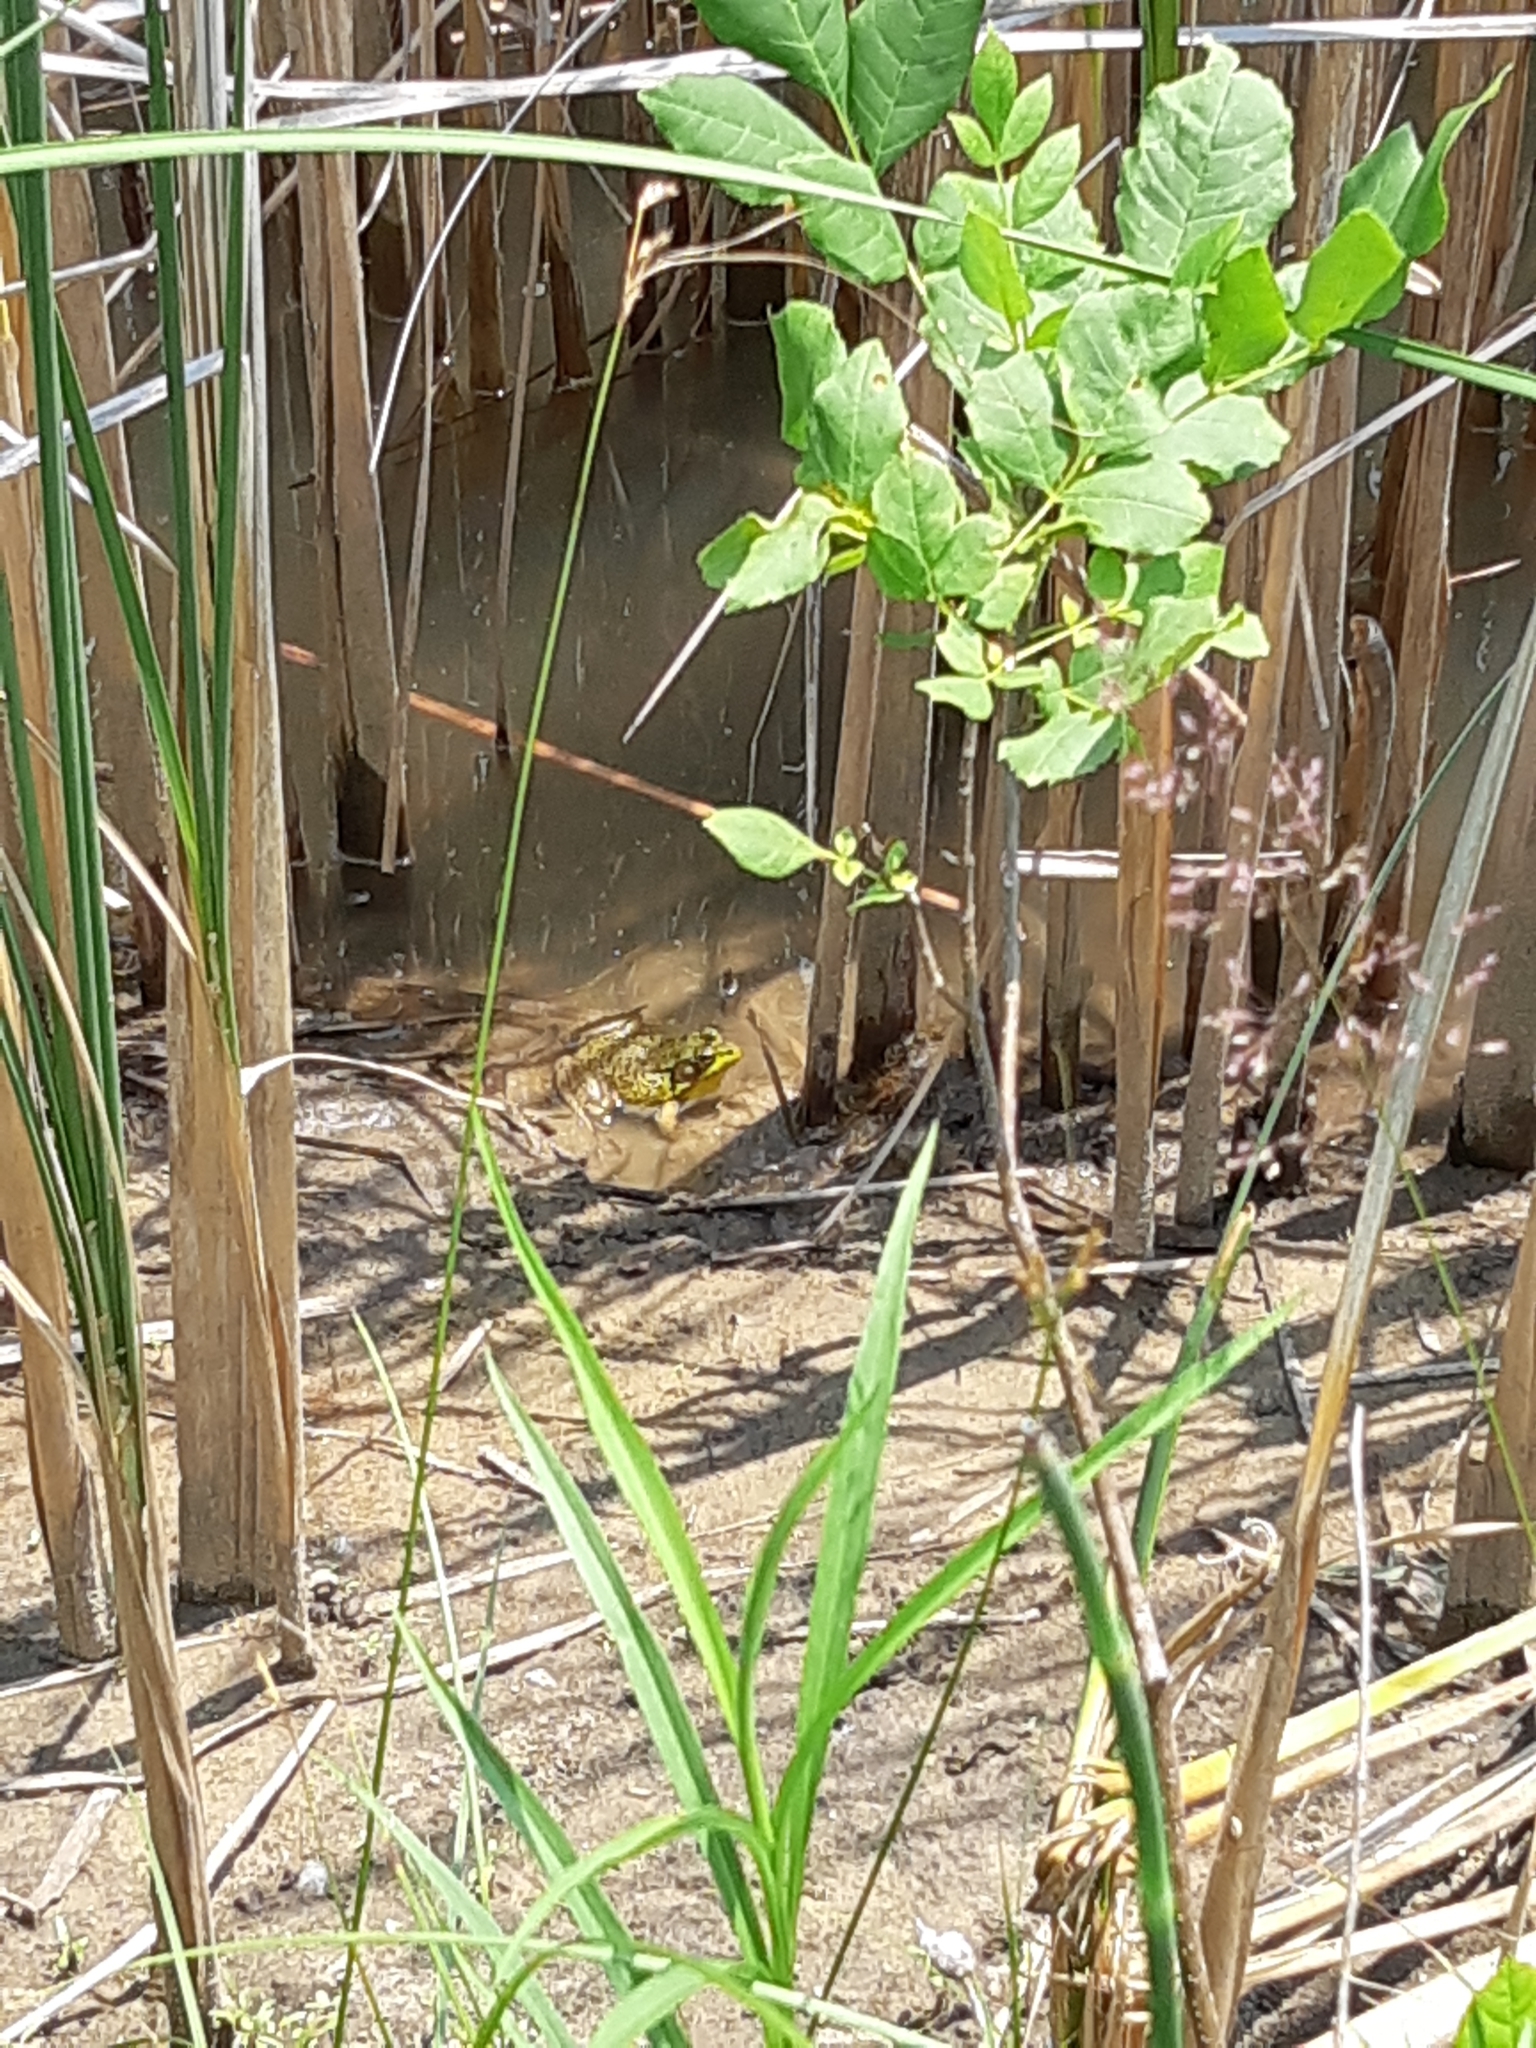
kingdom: Animalia
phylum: Chordata
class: Amphibia
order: Anura
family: Ranidae
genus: Lithobates
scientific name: Lithobates catesbeianus
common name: American bullfrog
